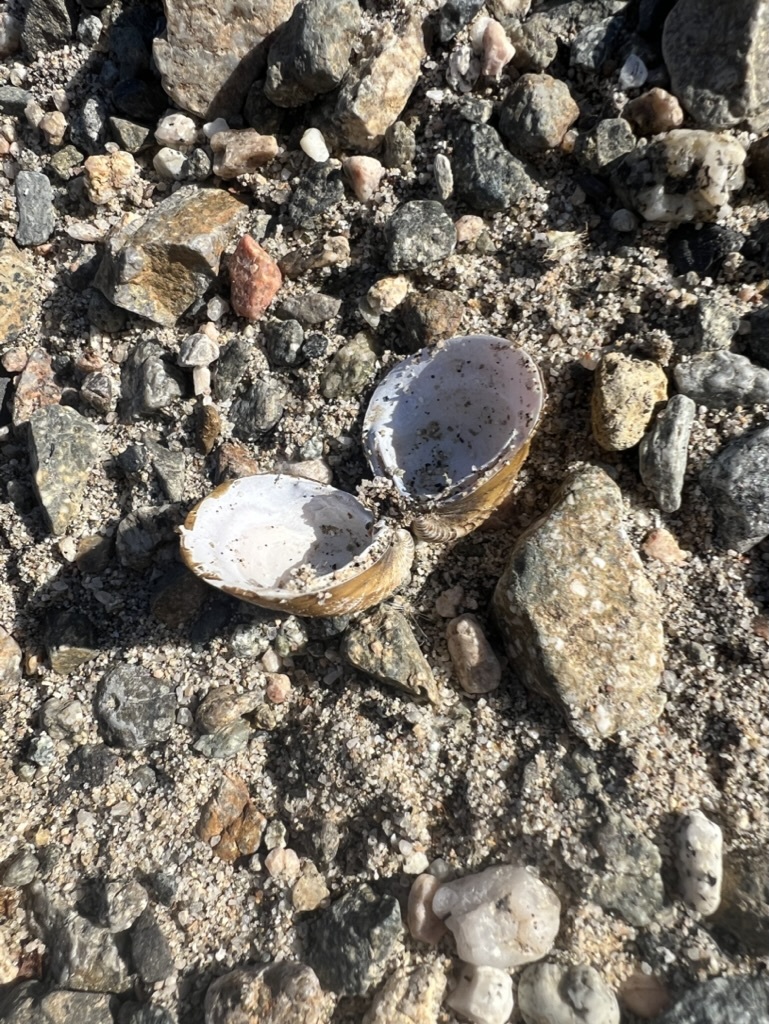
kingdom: Animalia
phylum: Mollusca
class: Bivalvia
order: Venerida
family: Cyrenidae
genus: Corbicula
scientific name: Corbicula fluminea
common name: Asian clam
